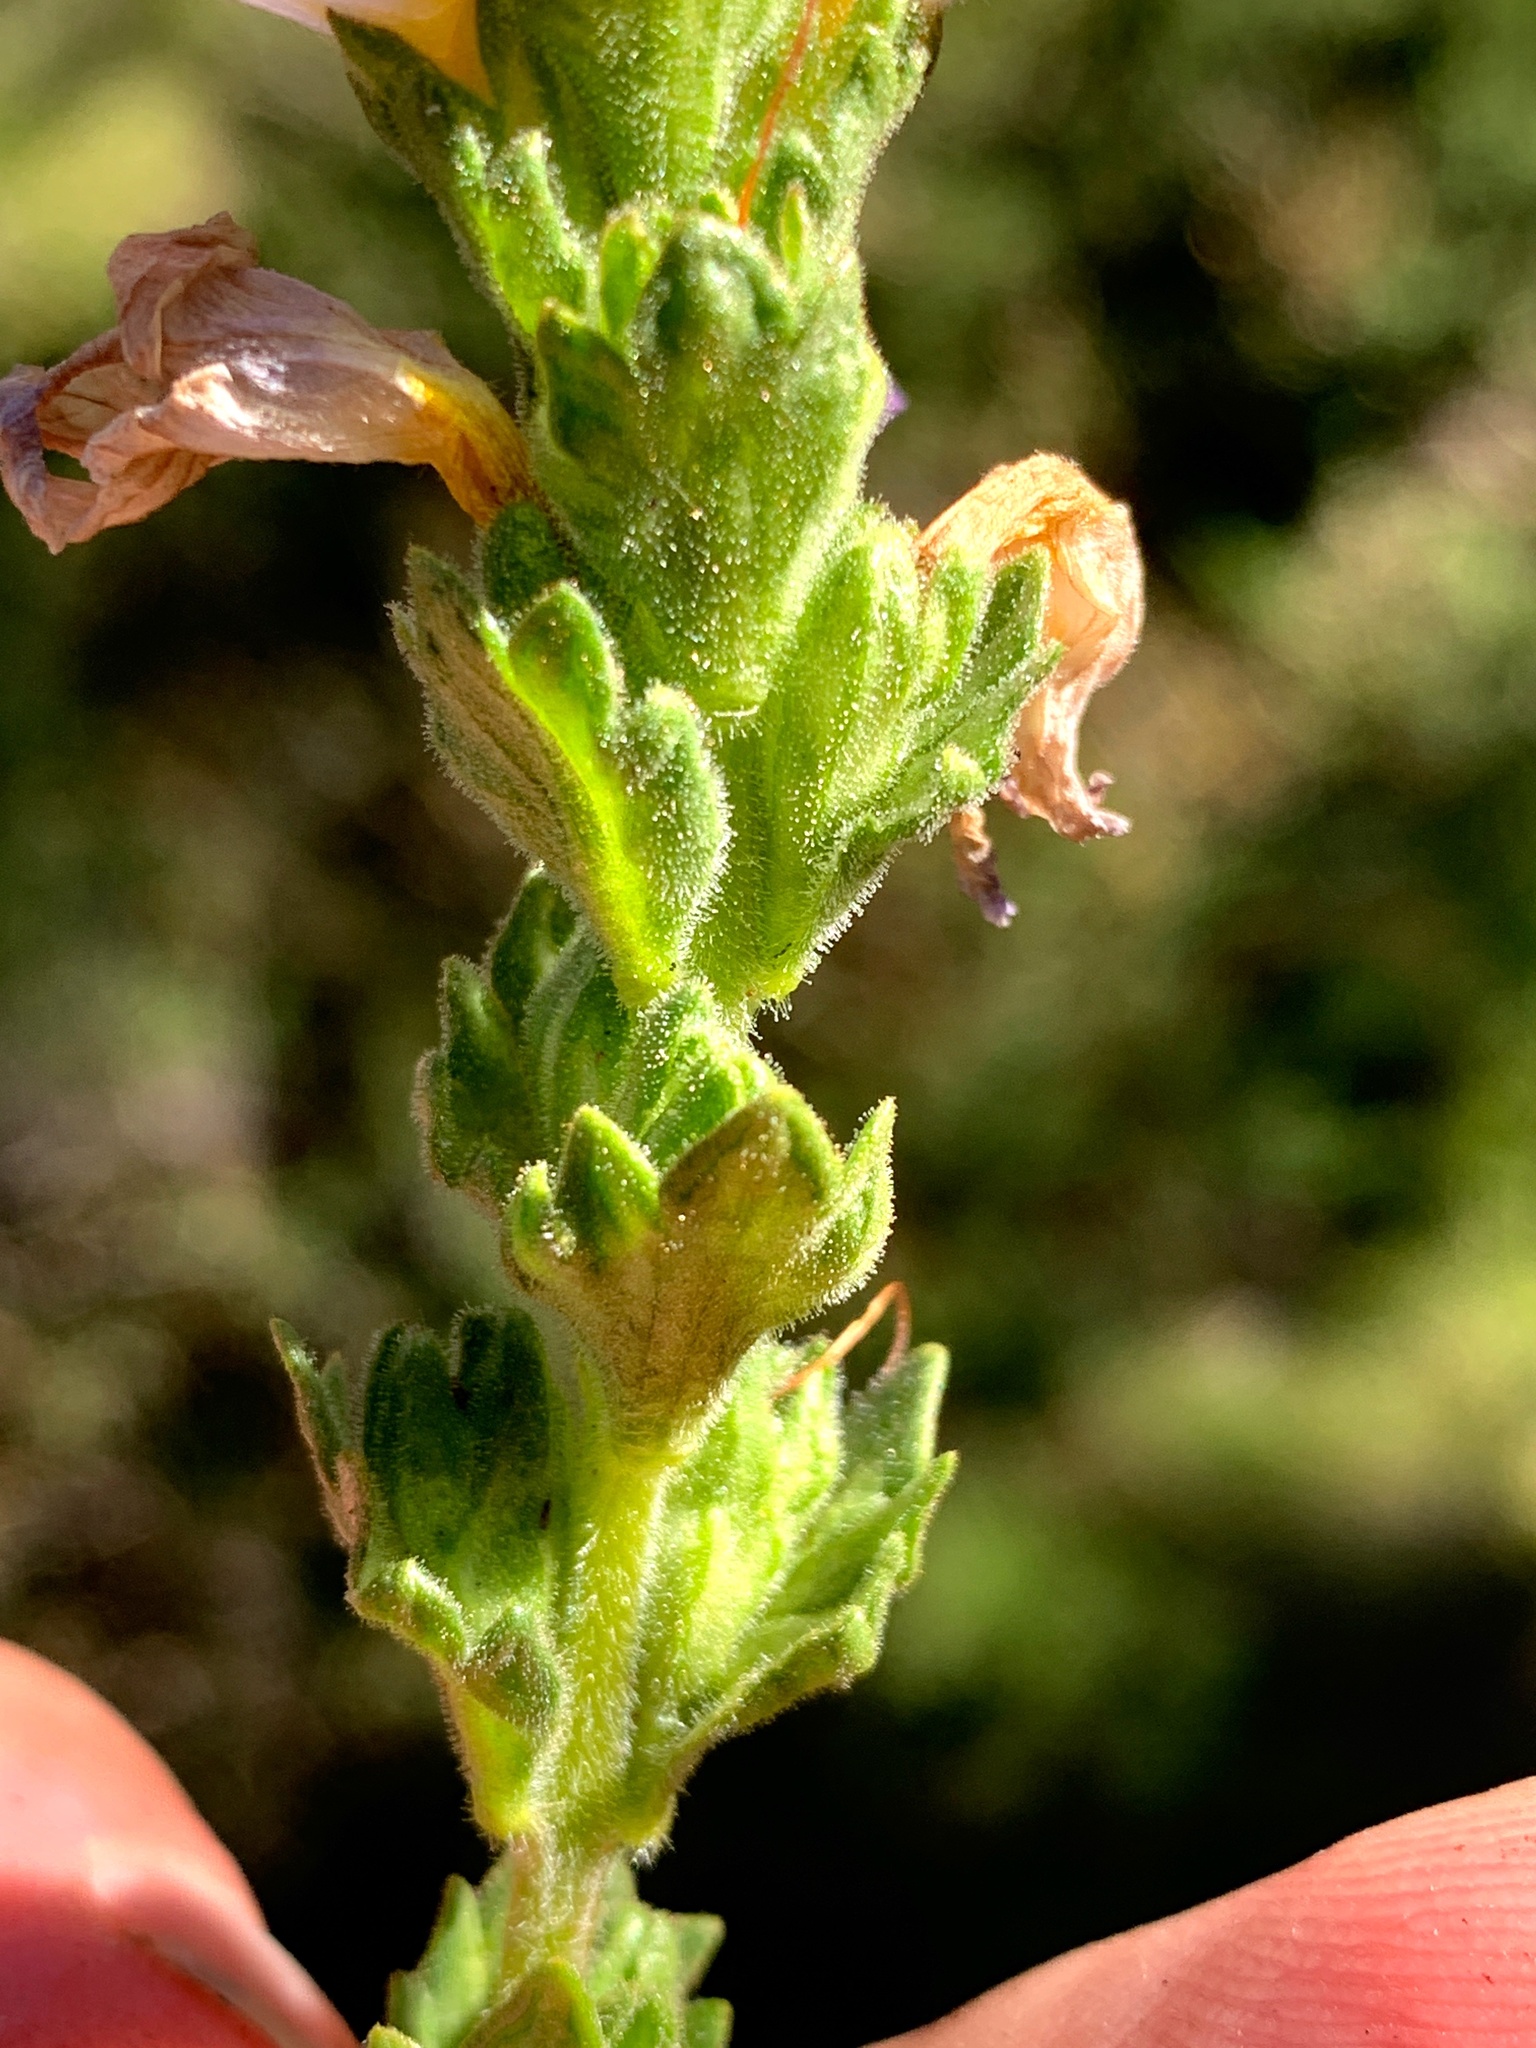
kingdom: Plantae
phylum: Tracheophyta
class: Magnoliopsida
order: Lamiales
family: Orobanchaceae
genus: Euphrasia
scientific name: Euphrasia collina
